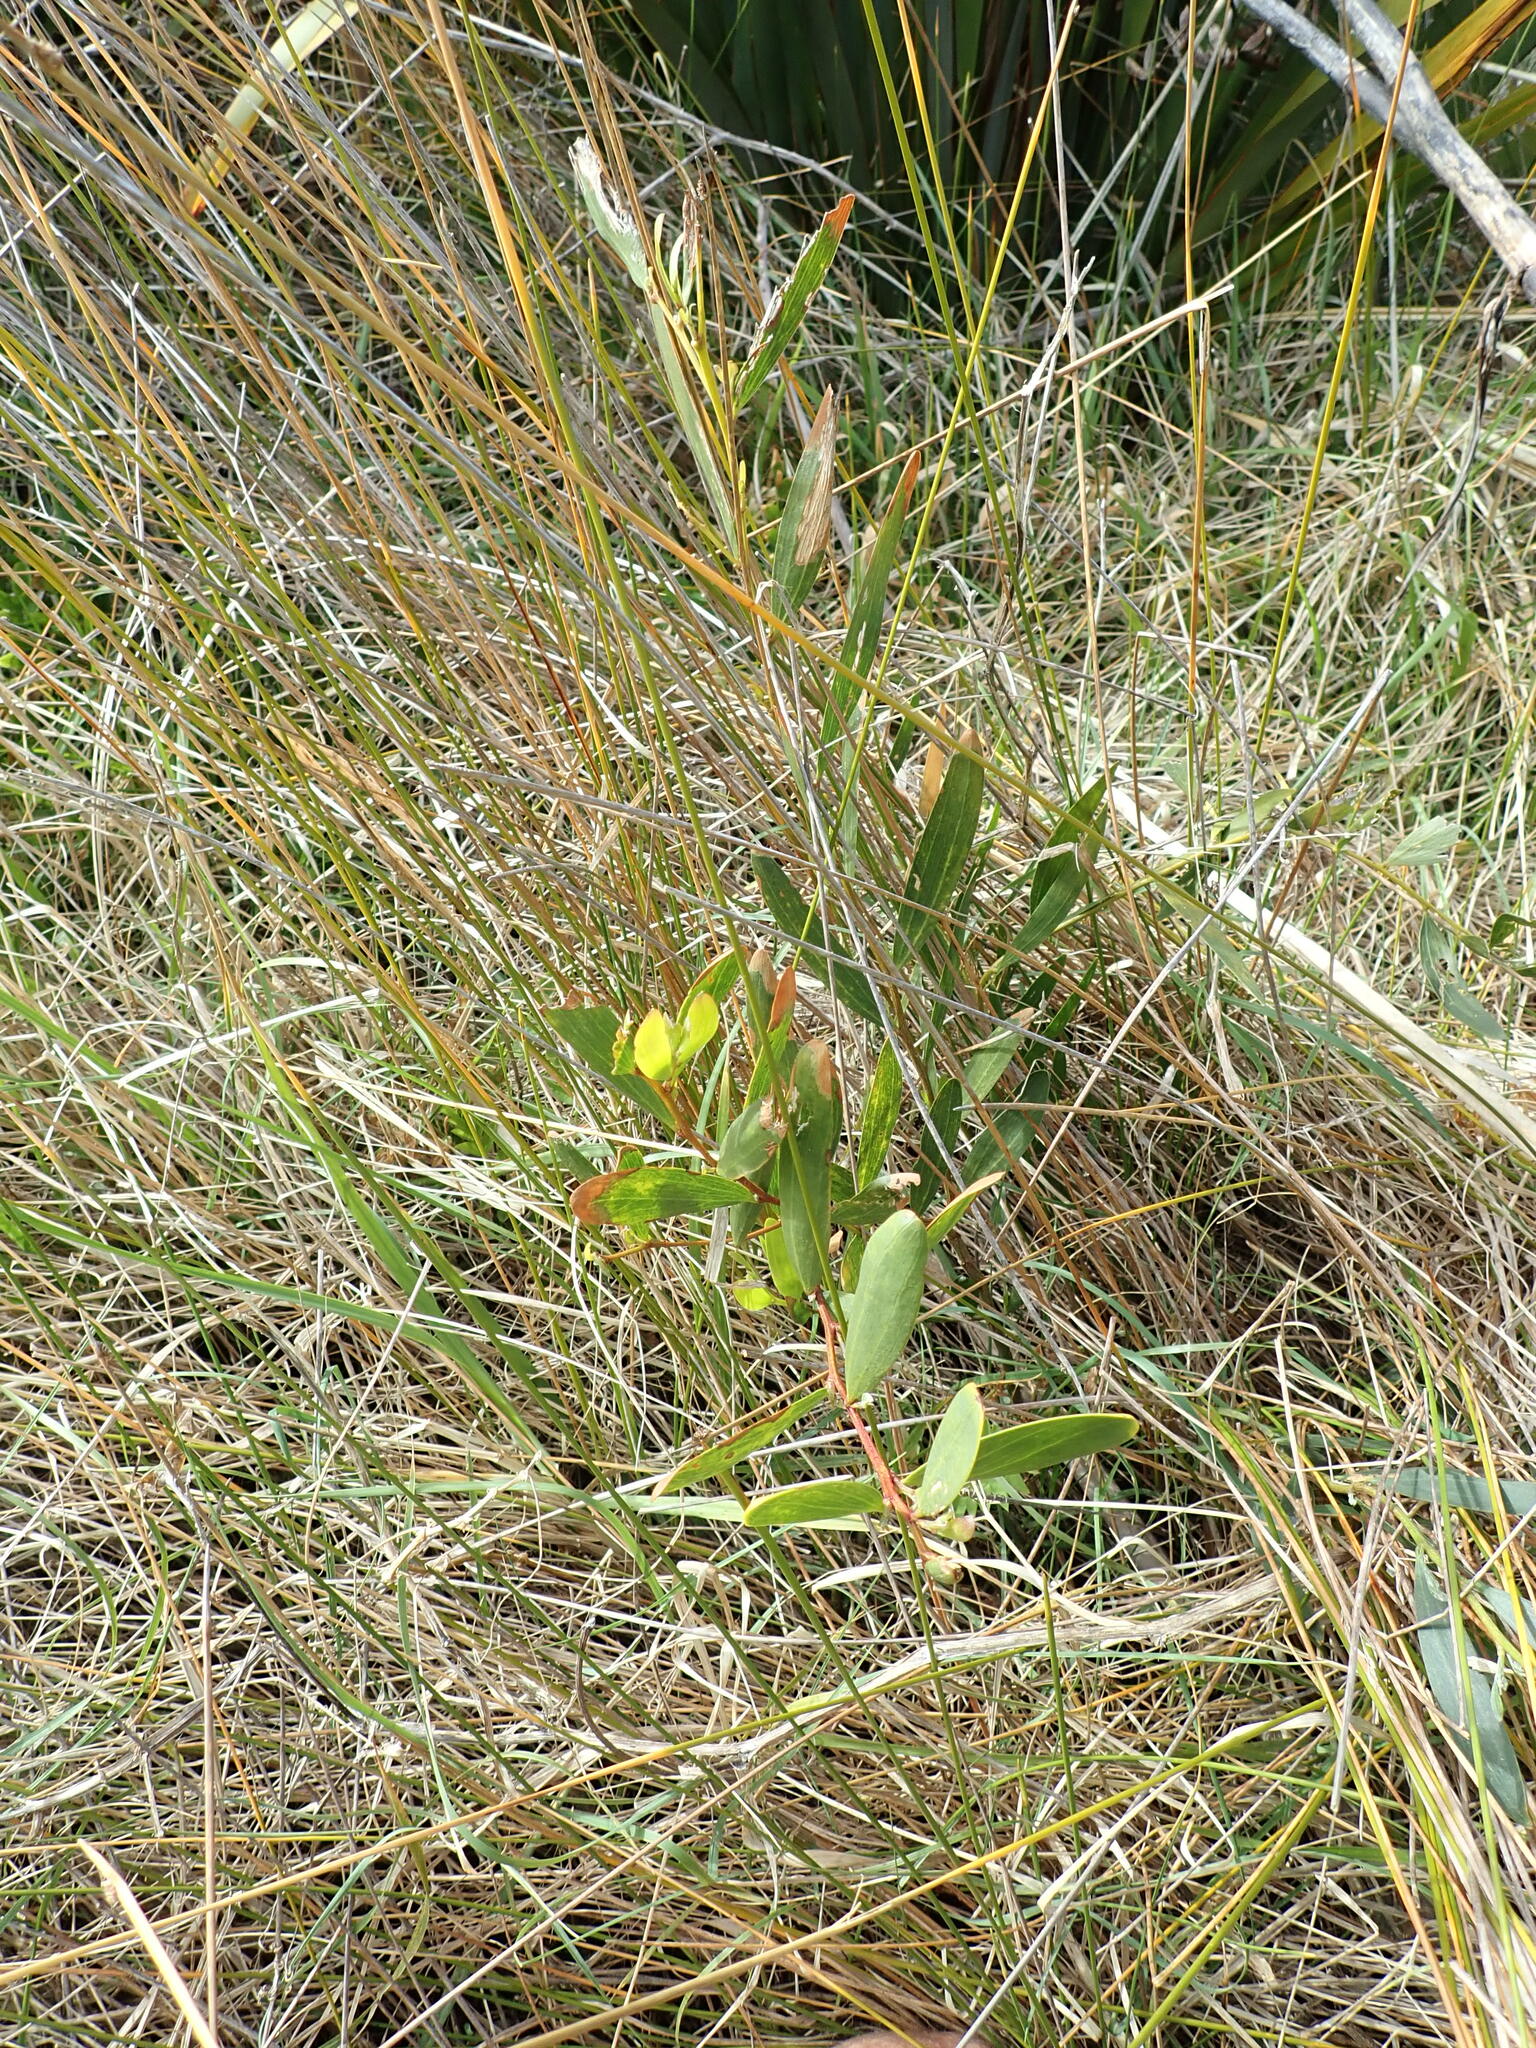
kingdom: Plantae
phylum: Tracheophyta
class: Magnoliopsida
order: Fabales
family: Fabaceae
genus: Acacia
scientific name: Acacia longifolia
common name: Sydney golden wattle
